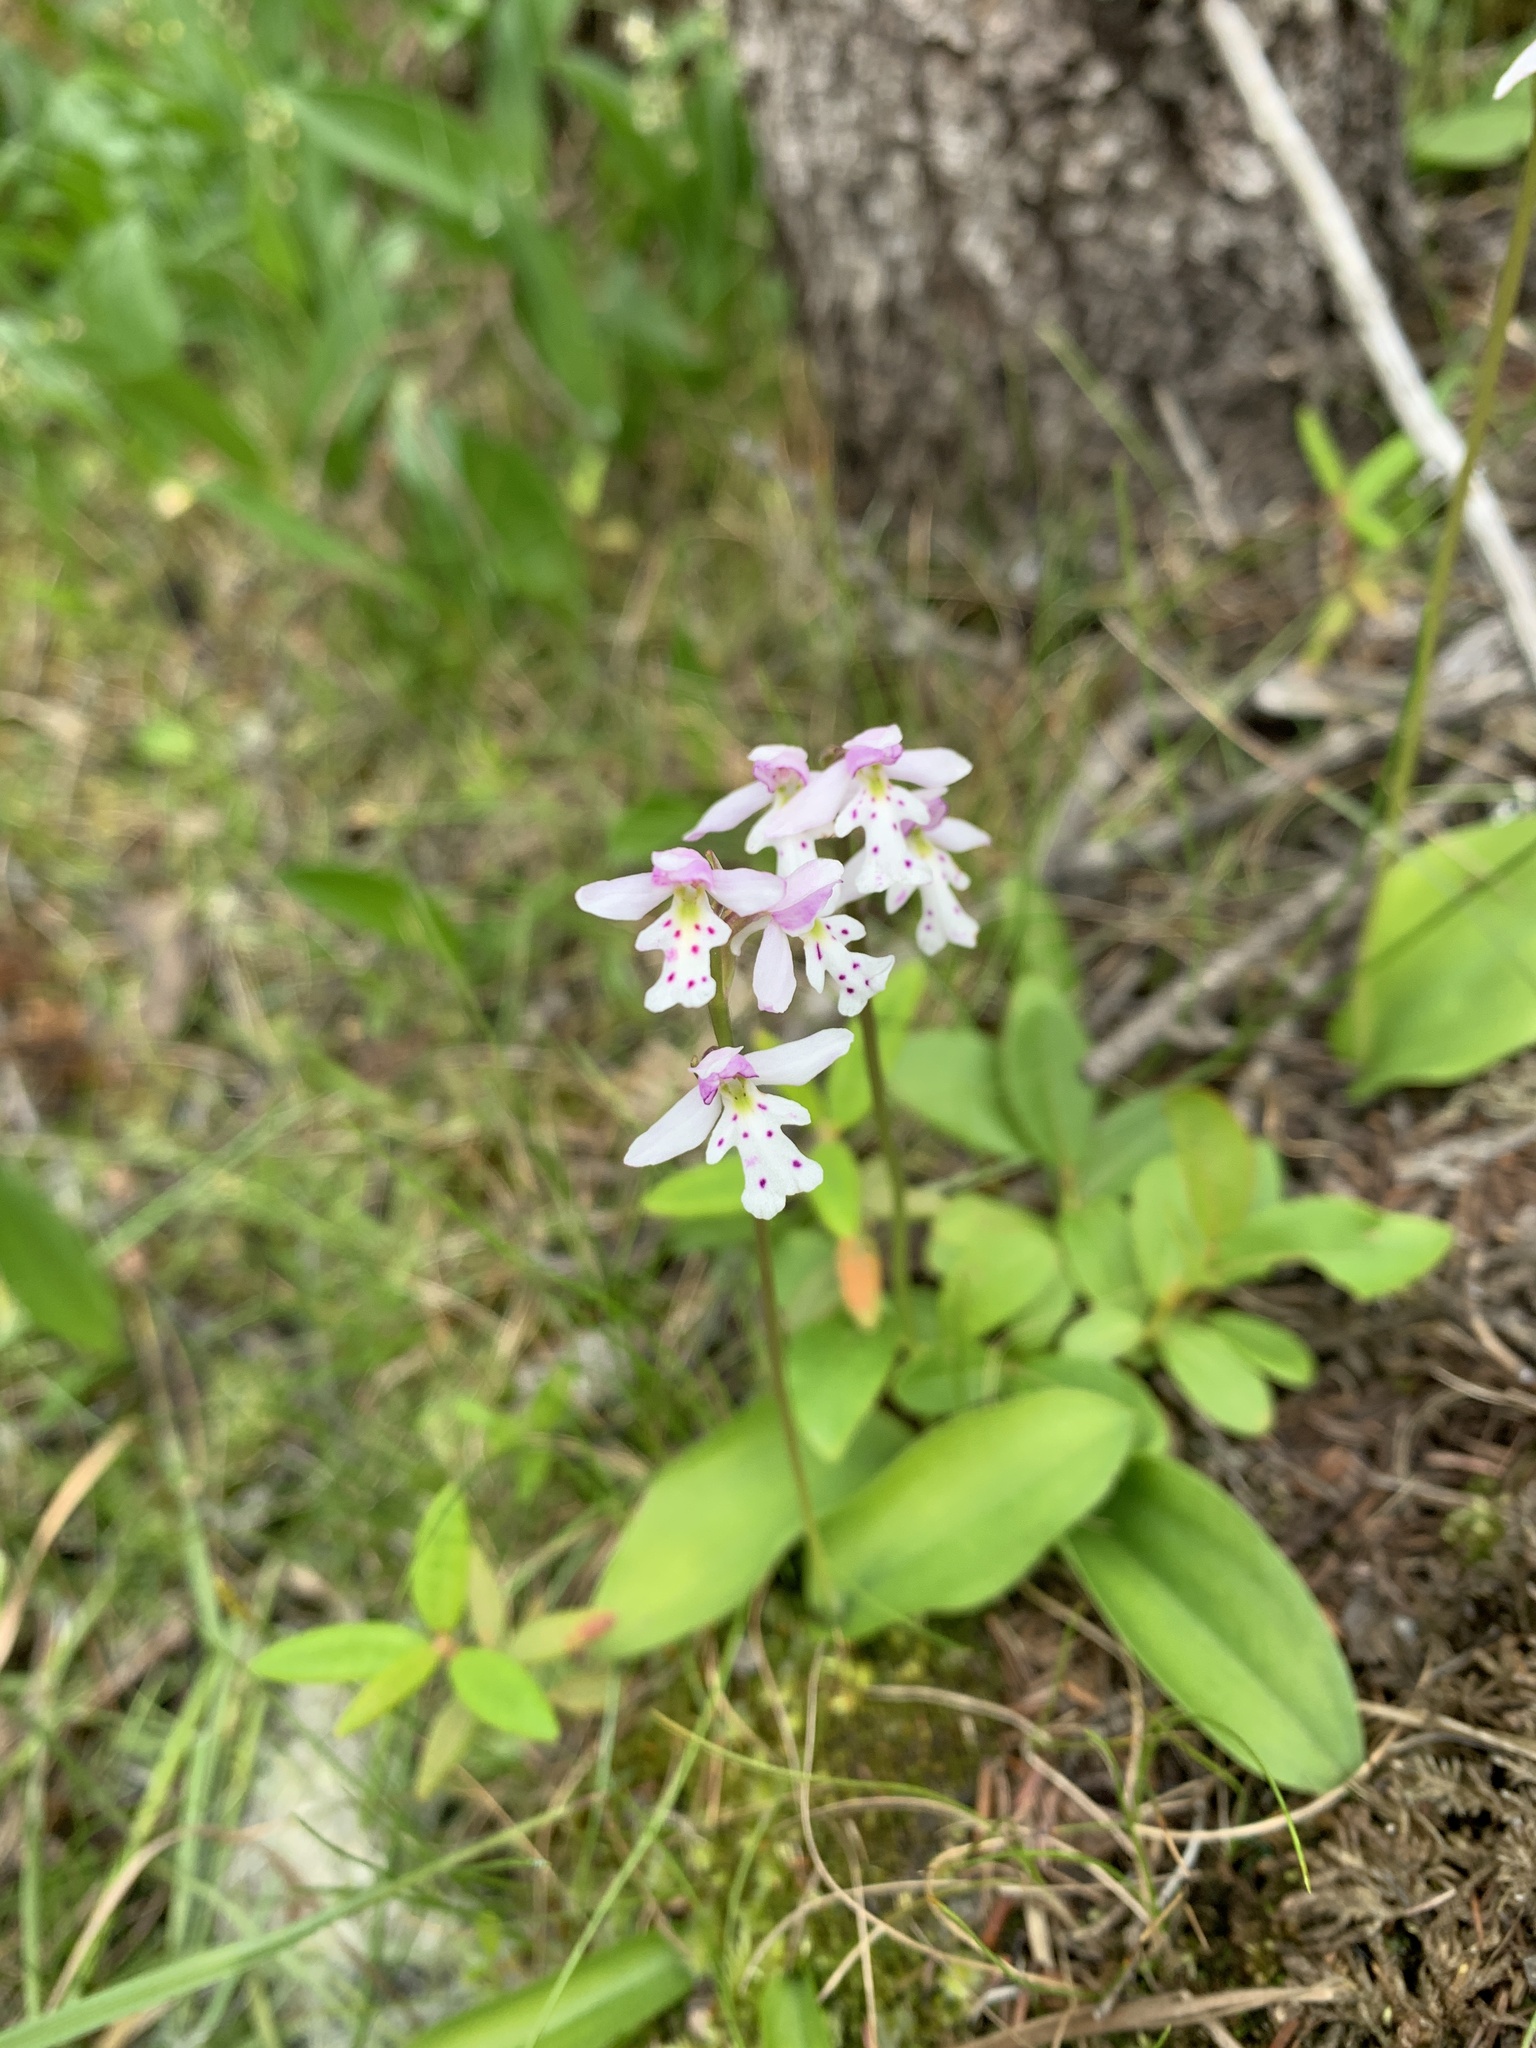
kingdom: Plantae
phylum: Tracheophyta
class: Liliopsida
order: Asparagales
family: Orchidaceae
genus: Galearis
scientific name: Galearis rotundifolia
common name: One-leaved orchis
